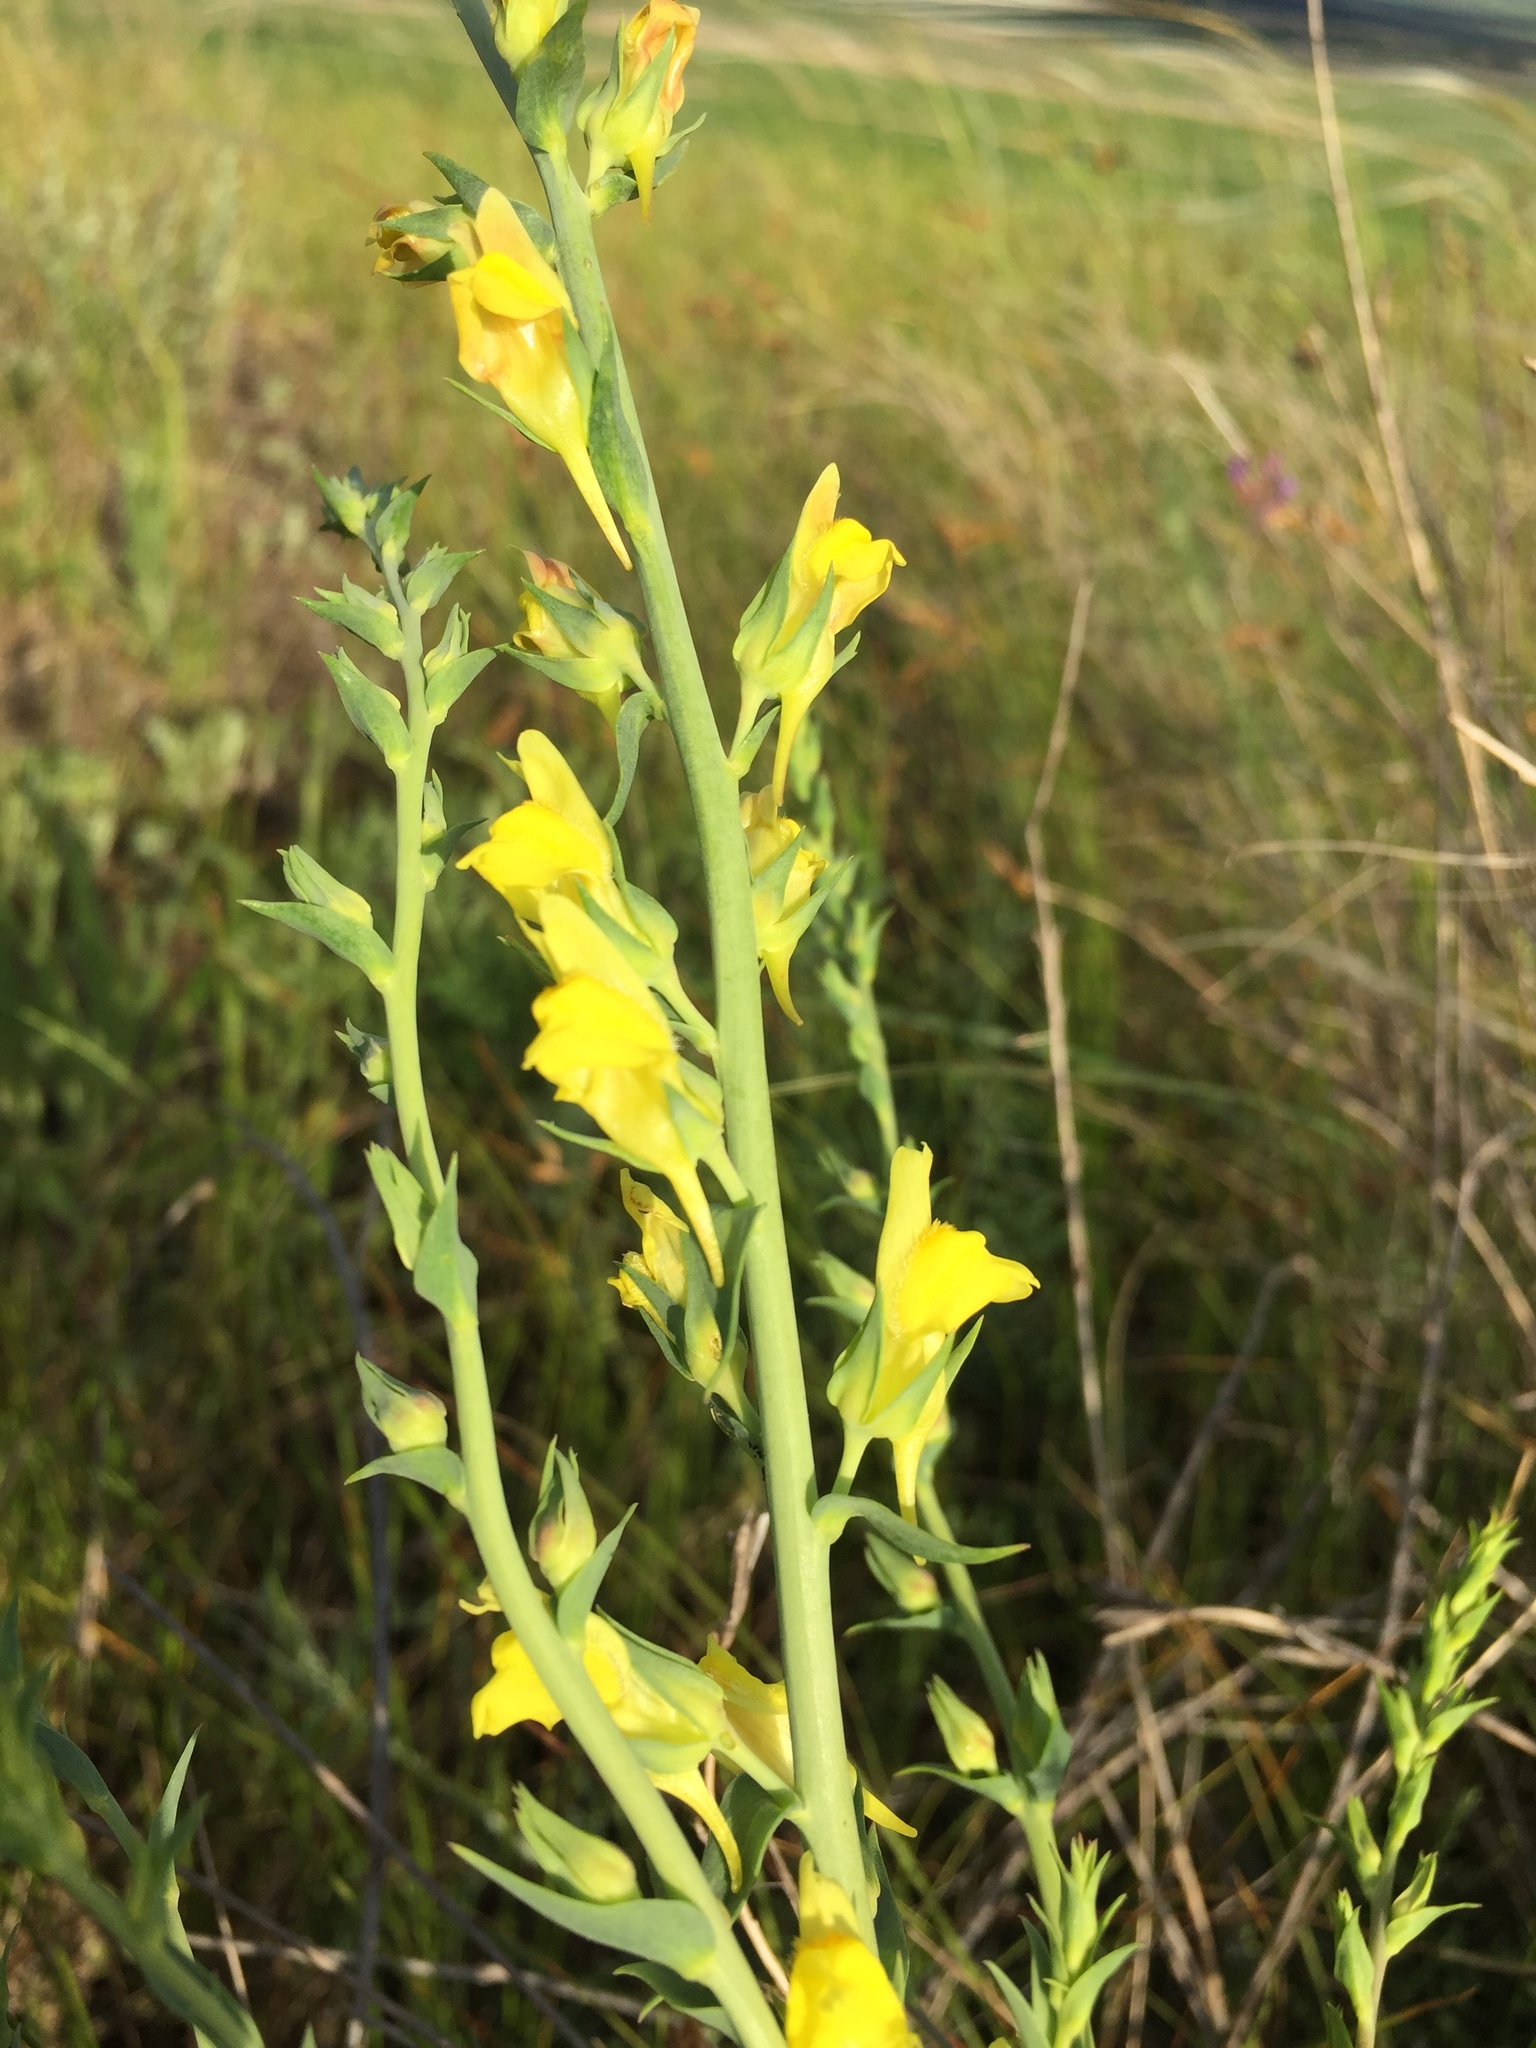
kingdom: Plantae
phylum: Tracheophyta
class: Magnoliopsida
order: Lamiales
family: Plantaginaceae
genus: Linaria
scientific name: Linaria genistifolia
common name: Broomleaf toadflax
